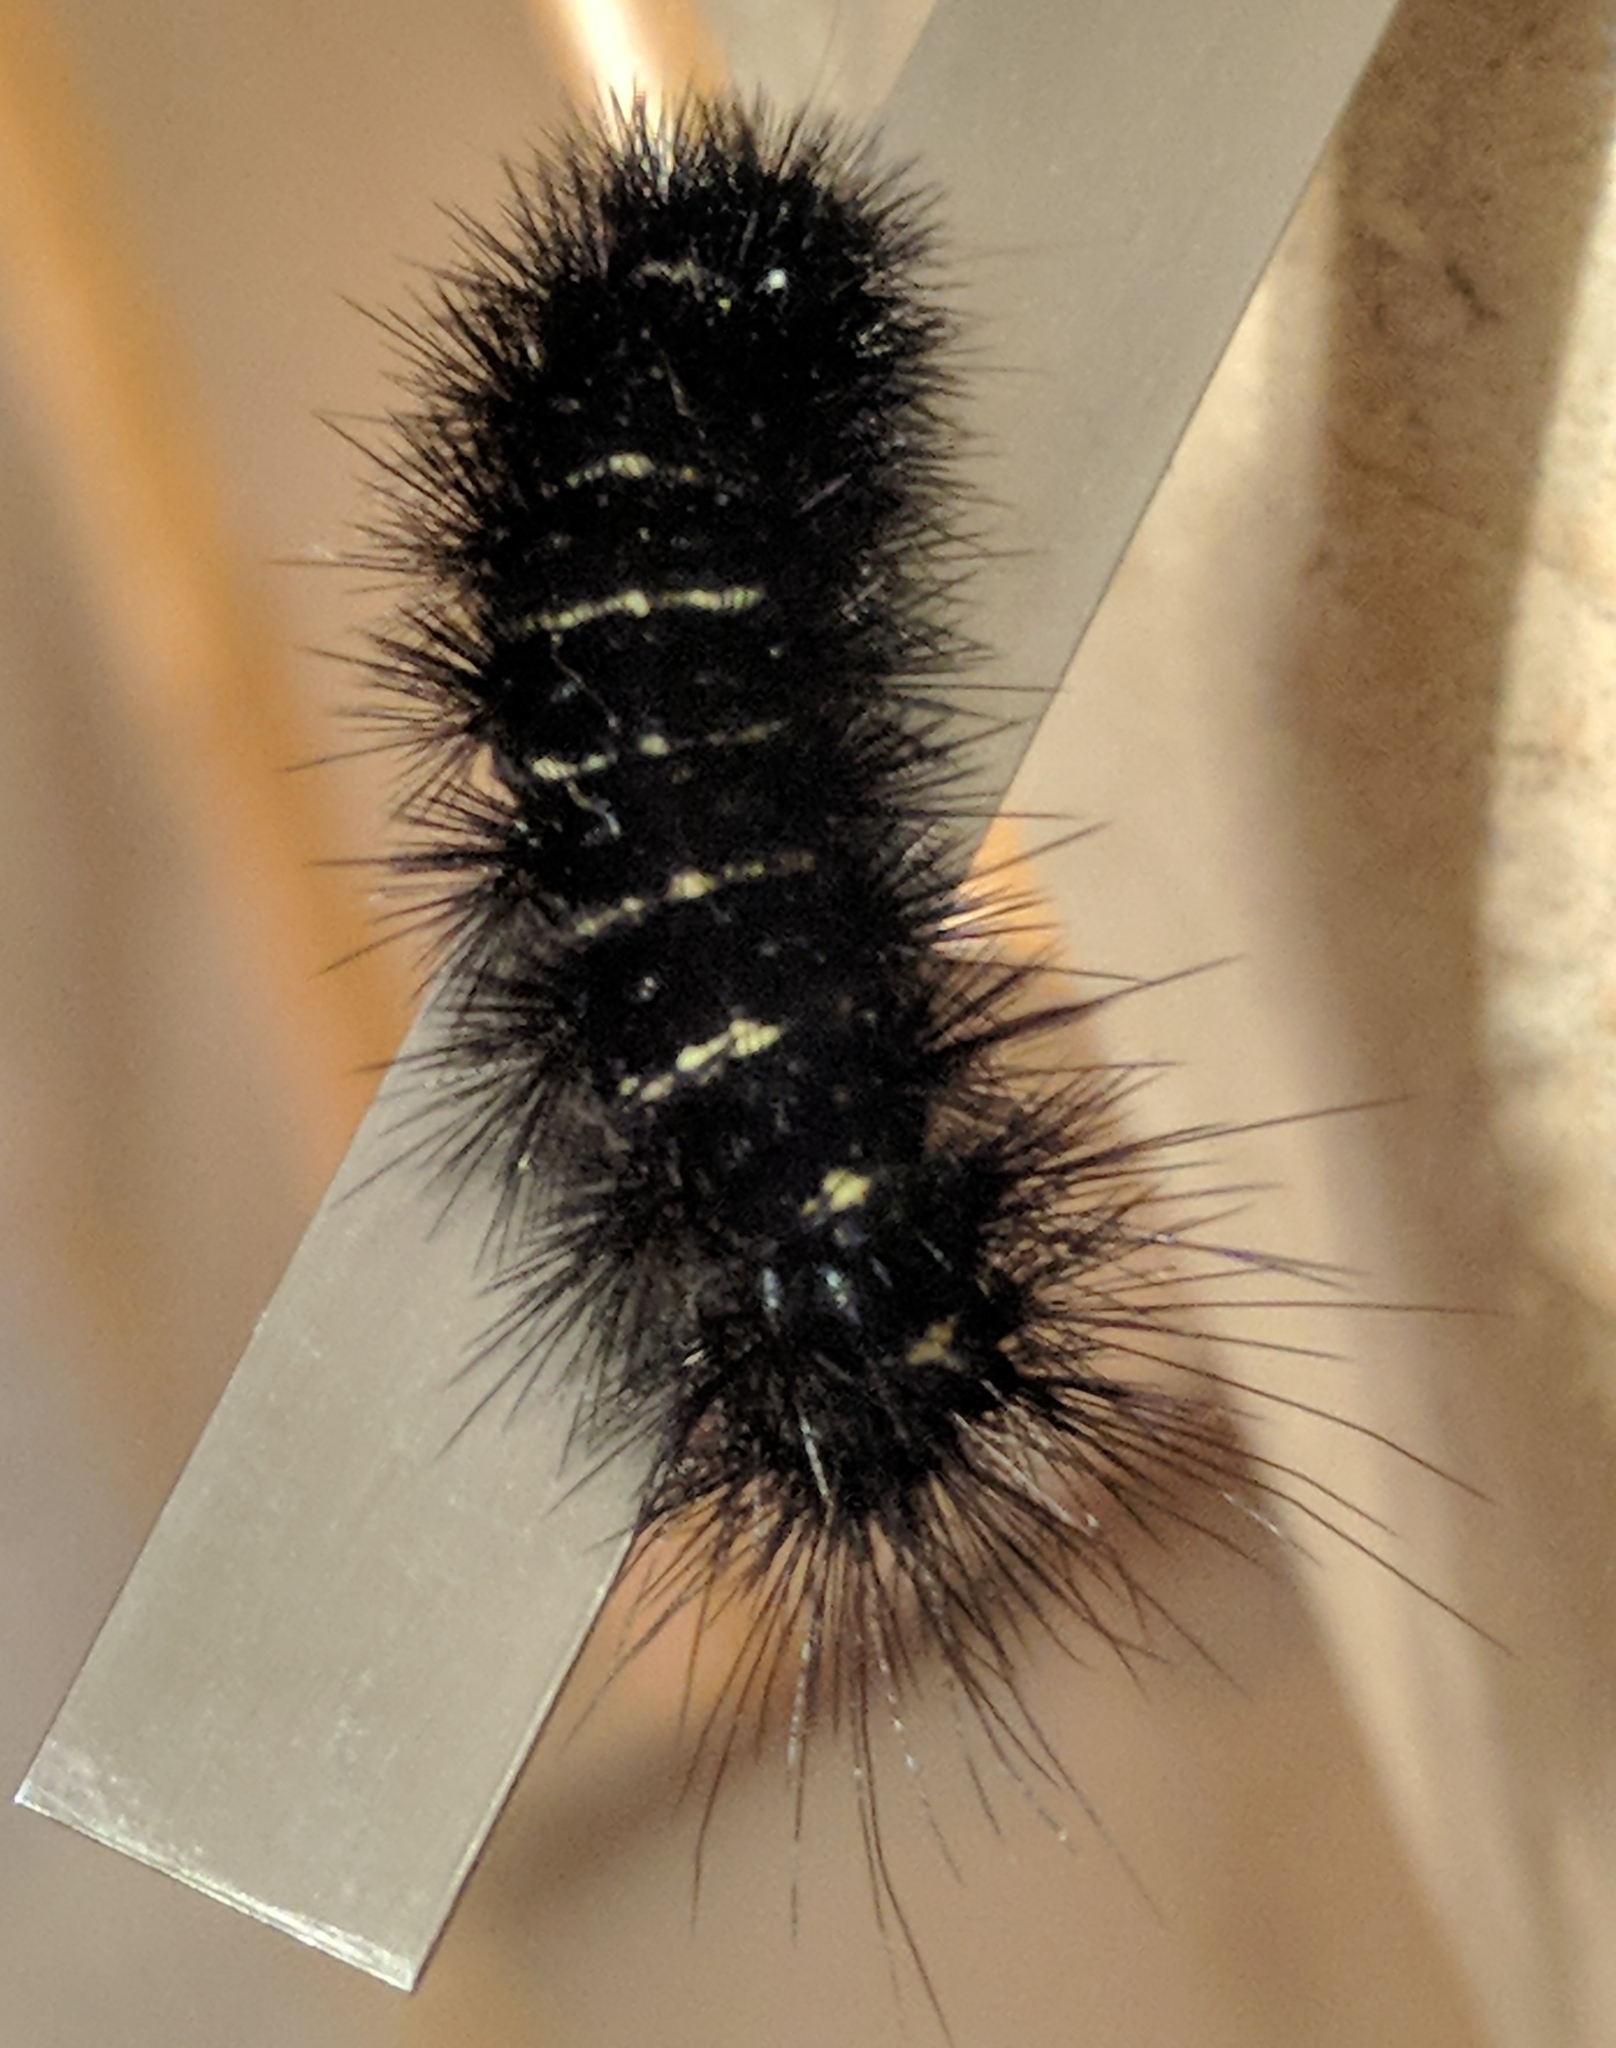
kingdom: Animalia
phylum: Arthropoda
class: Insecta
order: Lepidoptera
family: Erebidae
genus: Spilosoma
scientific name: Spilosoma congrua
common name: Agreeable tiger moth
